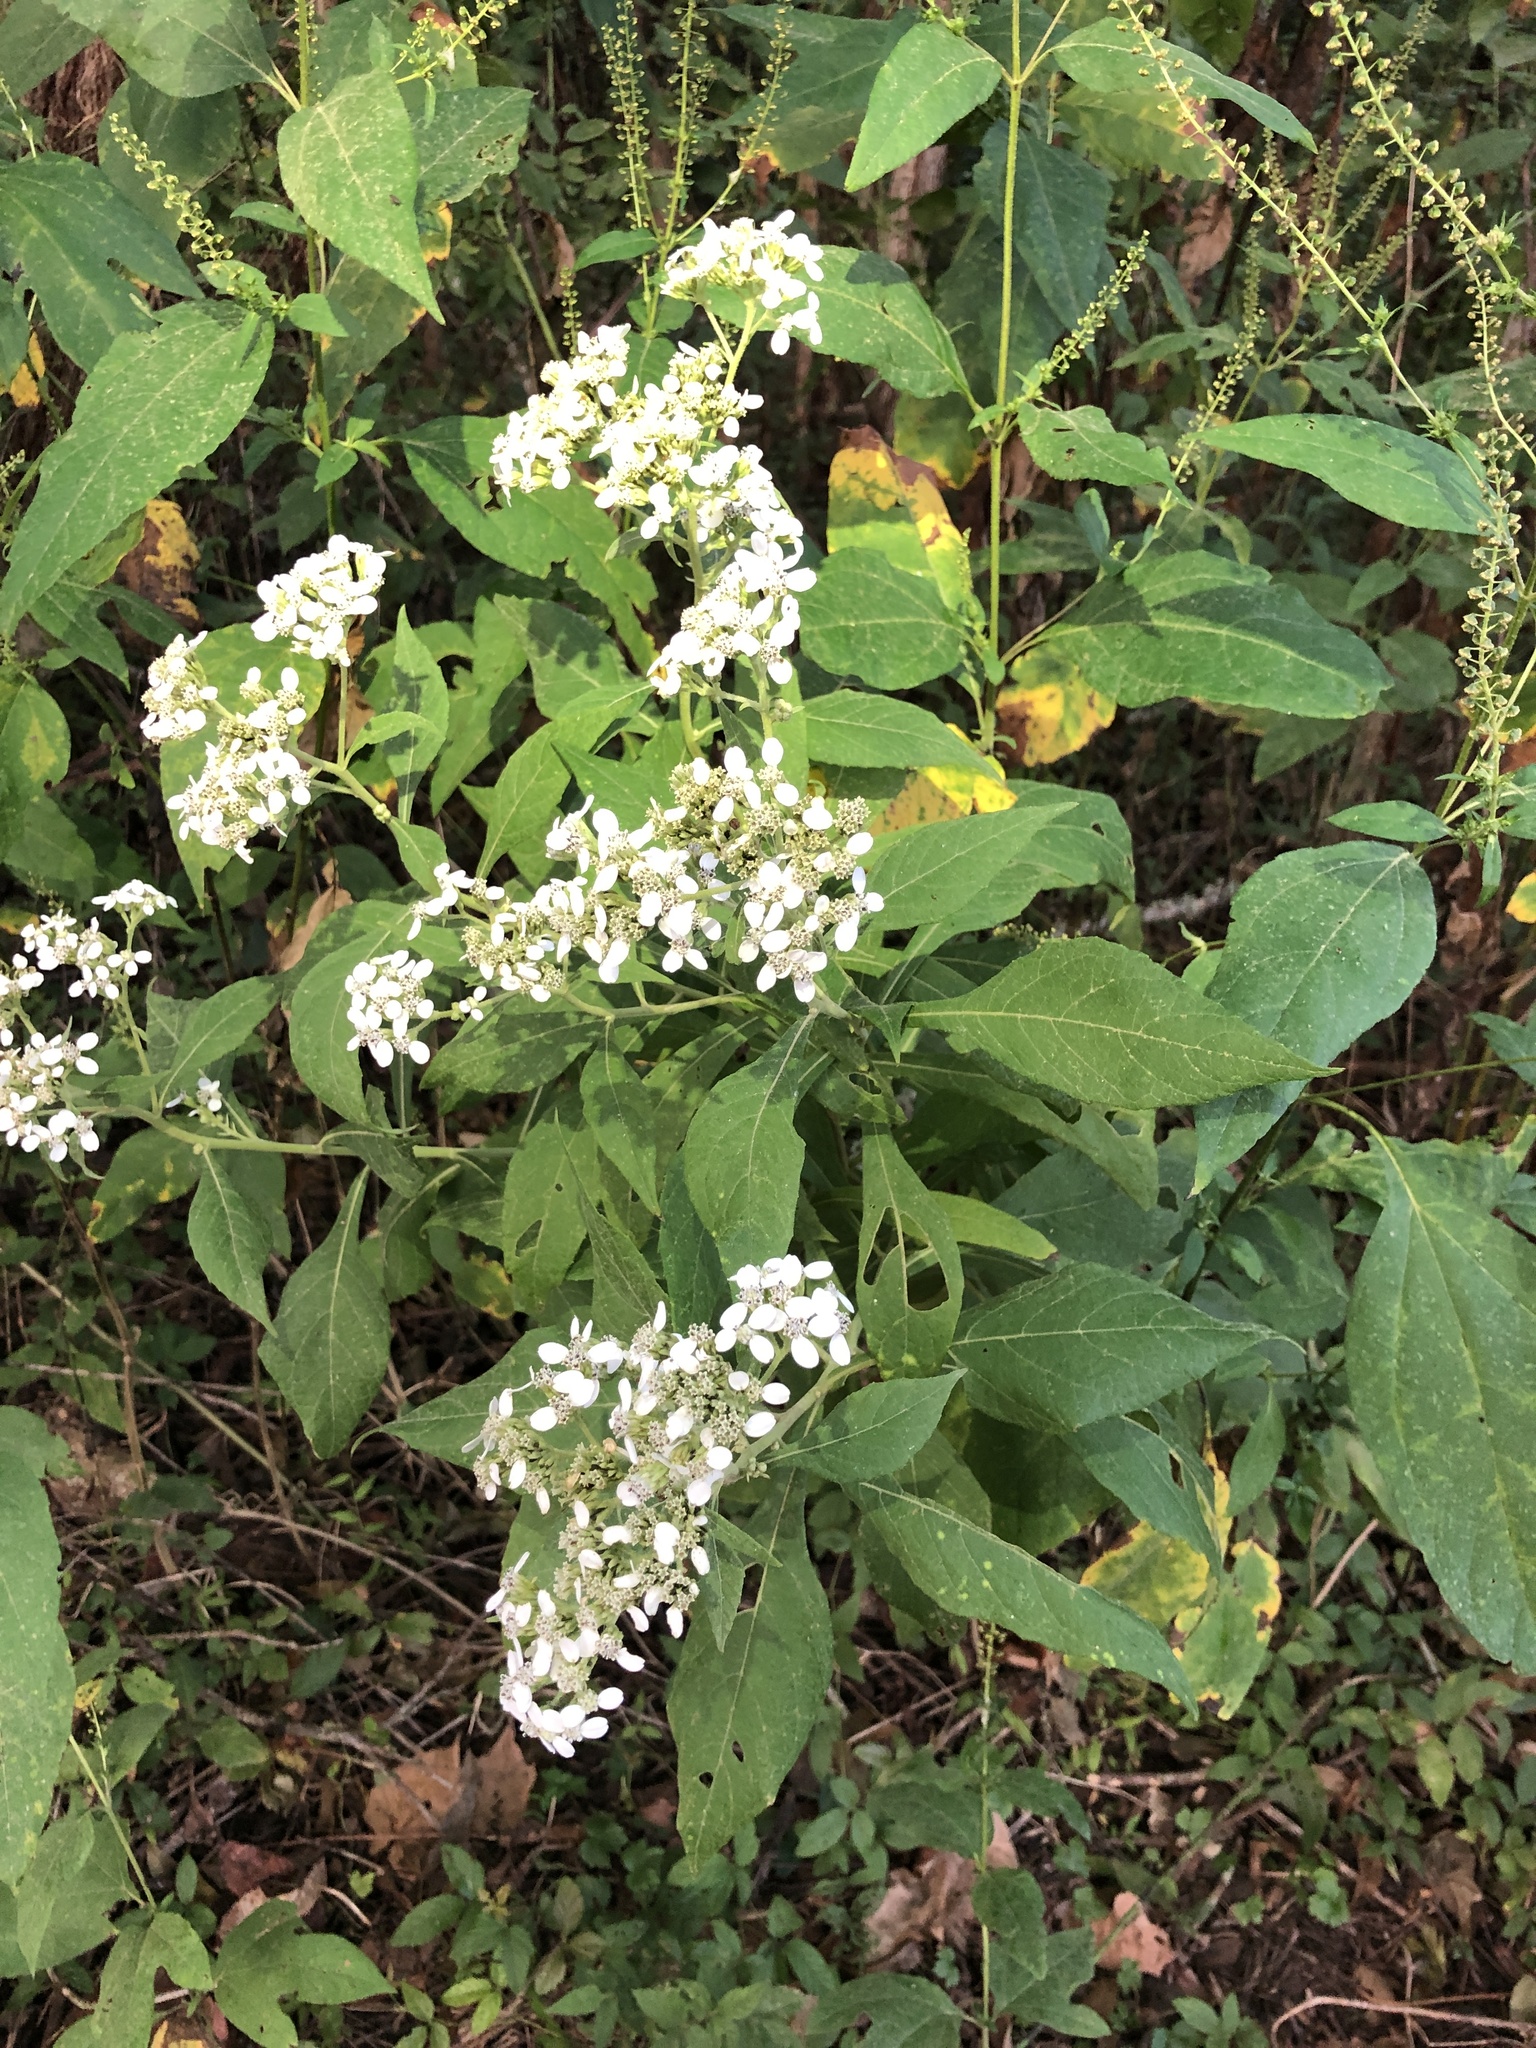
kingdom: Plantae
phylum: Tracheophyta
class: Magnoliopsida
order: Asterales
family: Asteraceae
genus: Verbesina
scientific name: Verbesina virginica
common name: Frostweed
